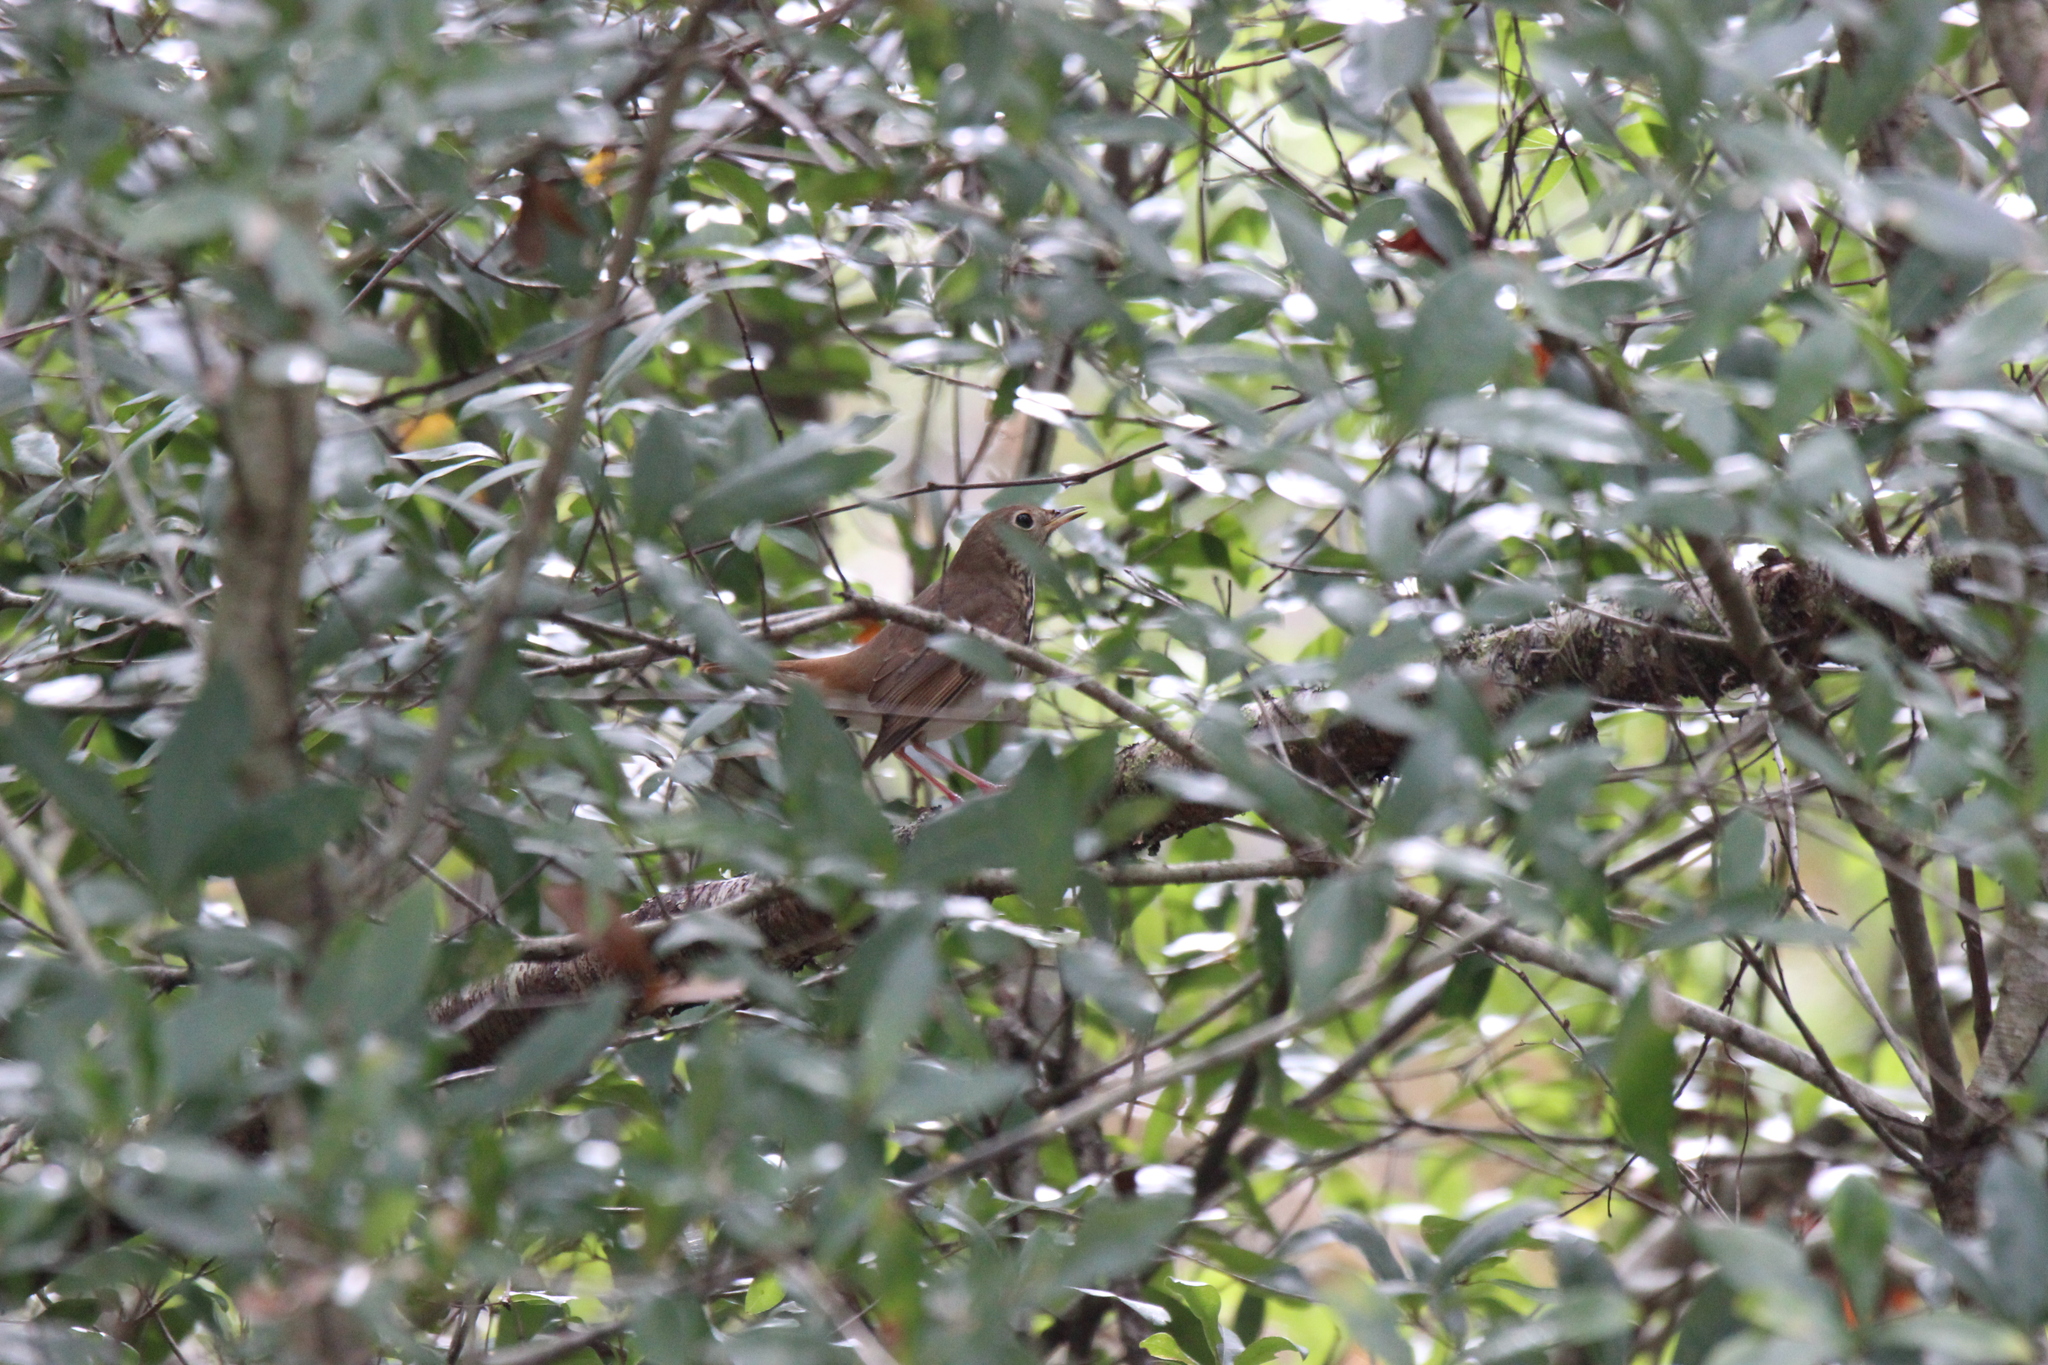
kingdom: Animalia
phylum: Chordata
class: Aves
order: Passeriformes
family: Turdidae
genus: Catharus
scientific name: Catharus guttatus
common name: Hermit thrush
